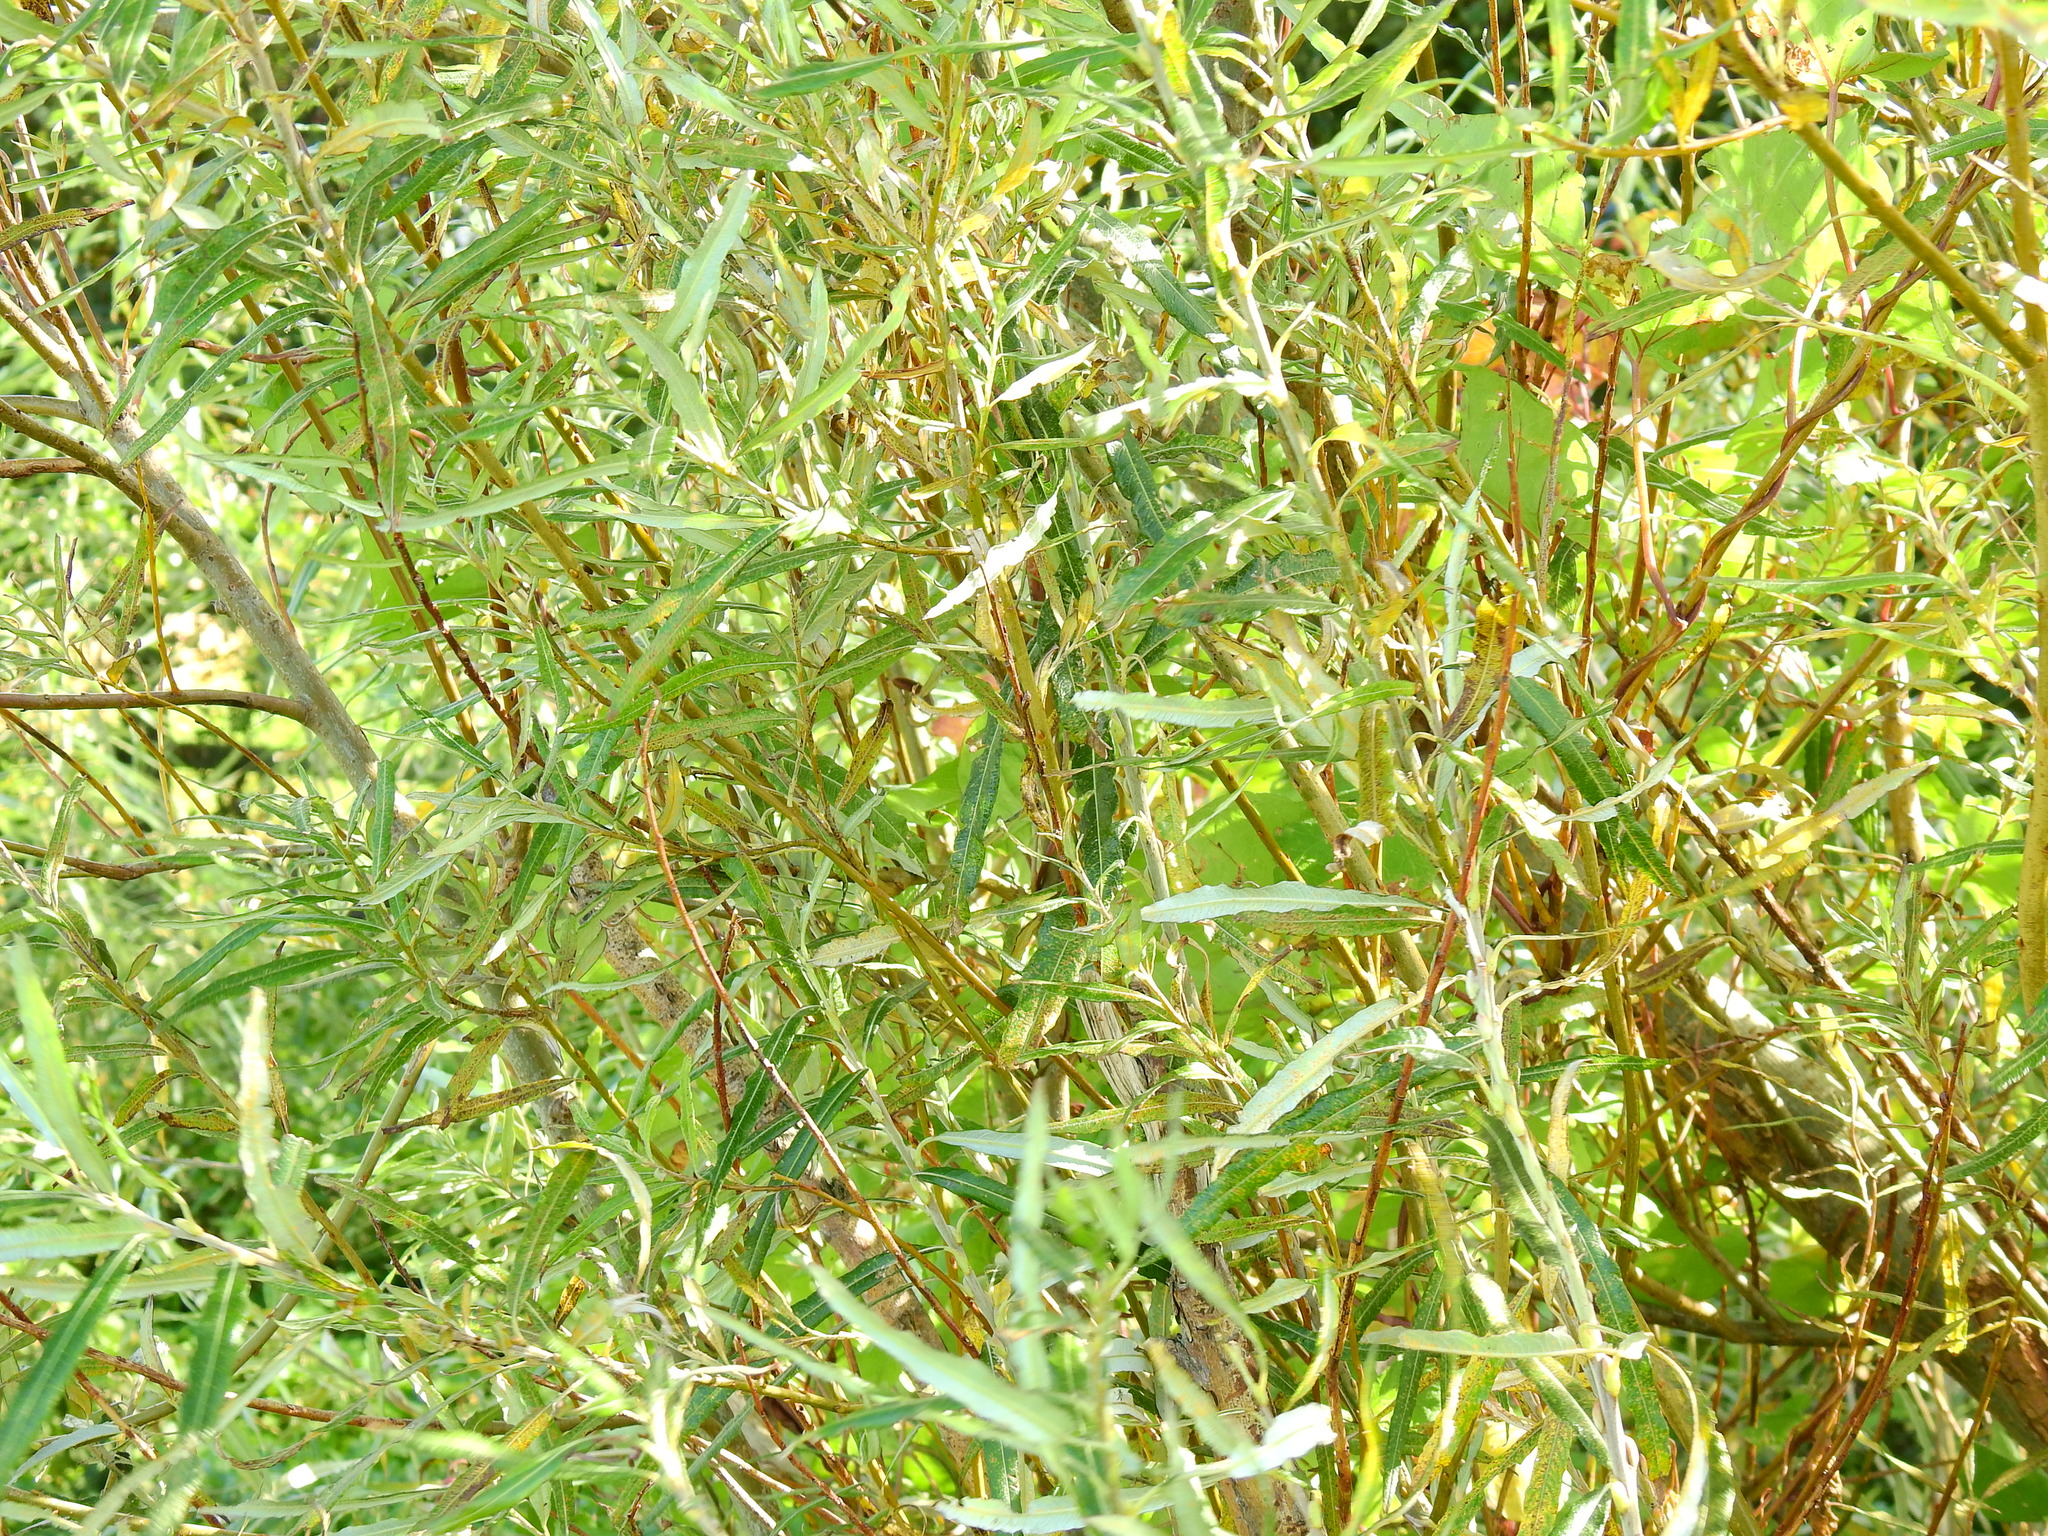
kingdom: Plantae
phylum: Tracheophyta
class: Magnoliopsida
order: Malpighiales
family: Salicaceae
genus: Salix
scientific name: Salix viminalis
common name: Osier
